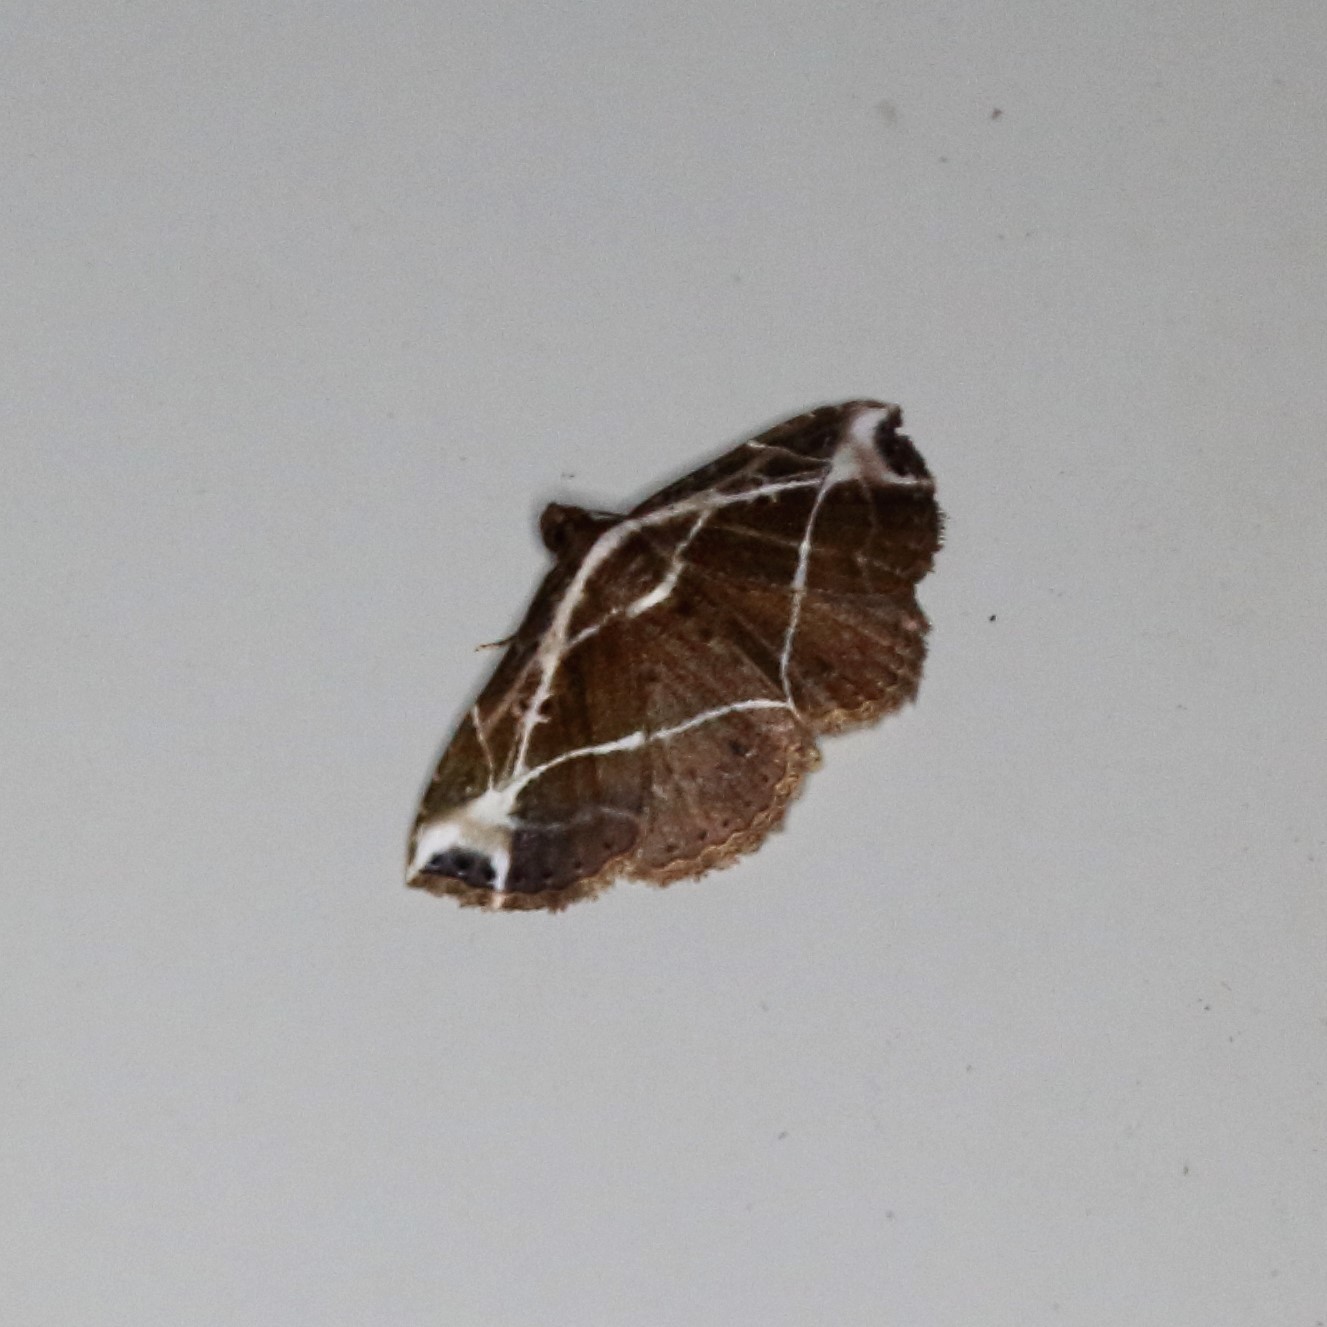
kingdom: Animalia
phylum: Arthropoda
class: Insecta
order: Lepidoptera
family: Erebidae
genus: Zurobata
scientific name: Zurobata fissifascia
